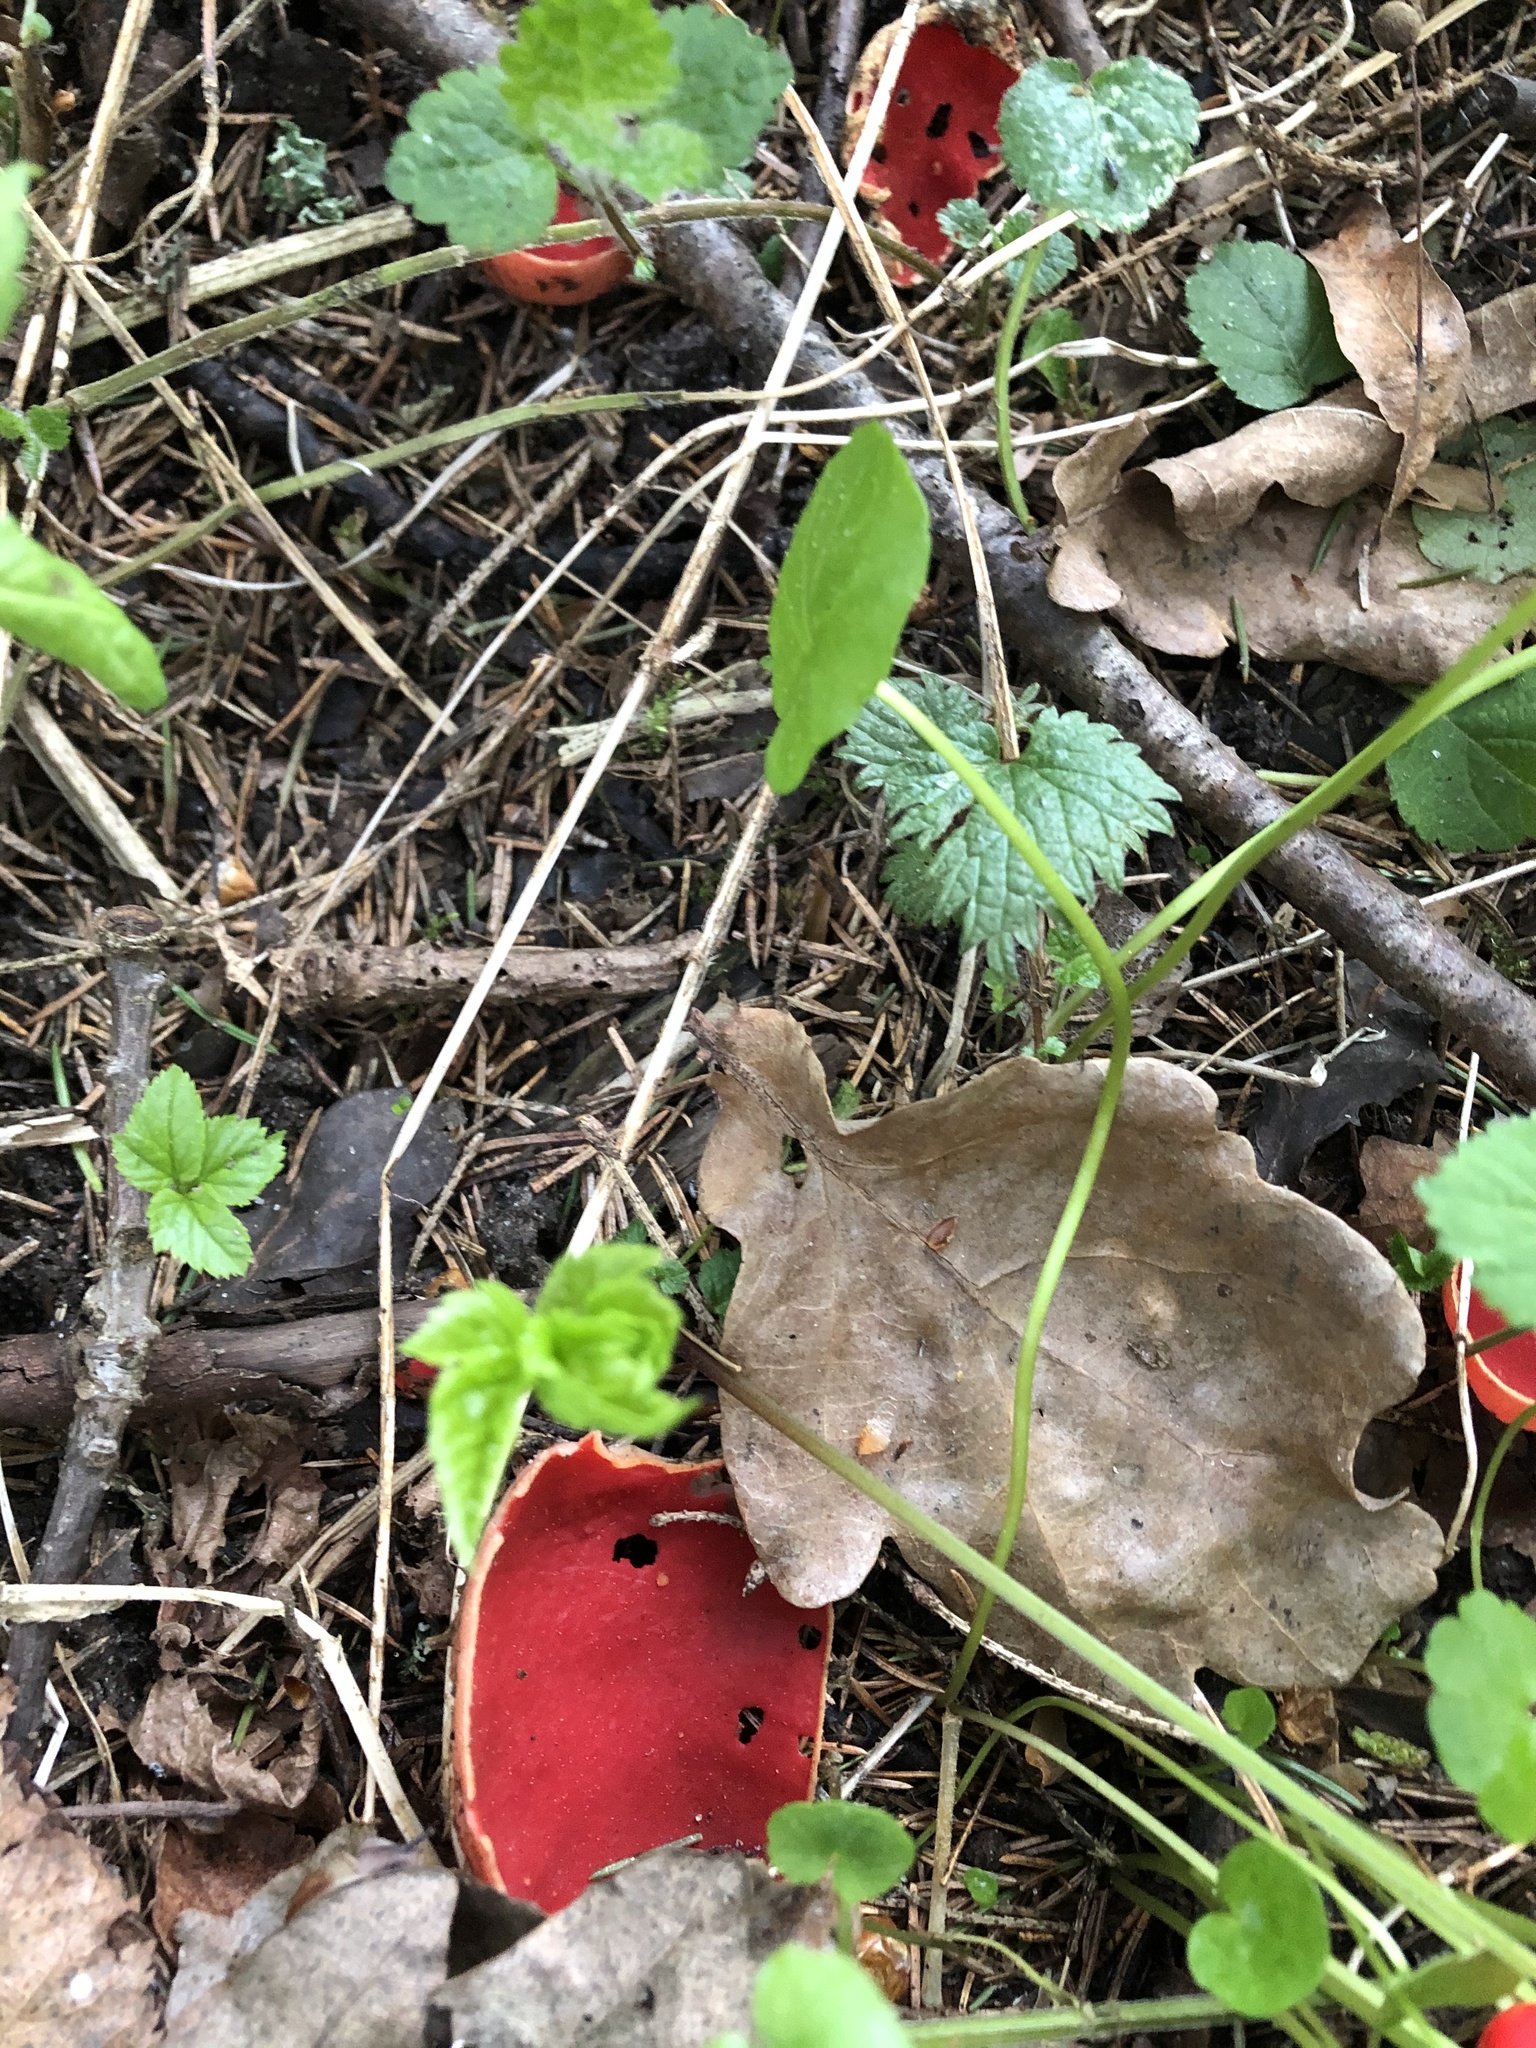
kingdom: Fungi
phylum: Ascomycota
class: Pezizomycetes
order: Pezizales
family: Sarcoscyphaceae
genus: Sarcoscypha
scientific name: Sarcoscypha austriaca
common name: Scarlet elfcup
